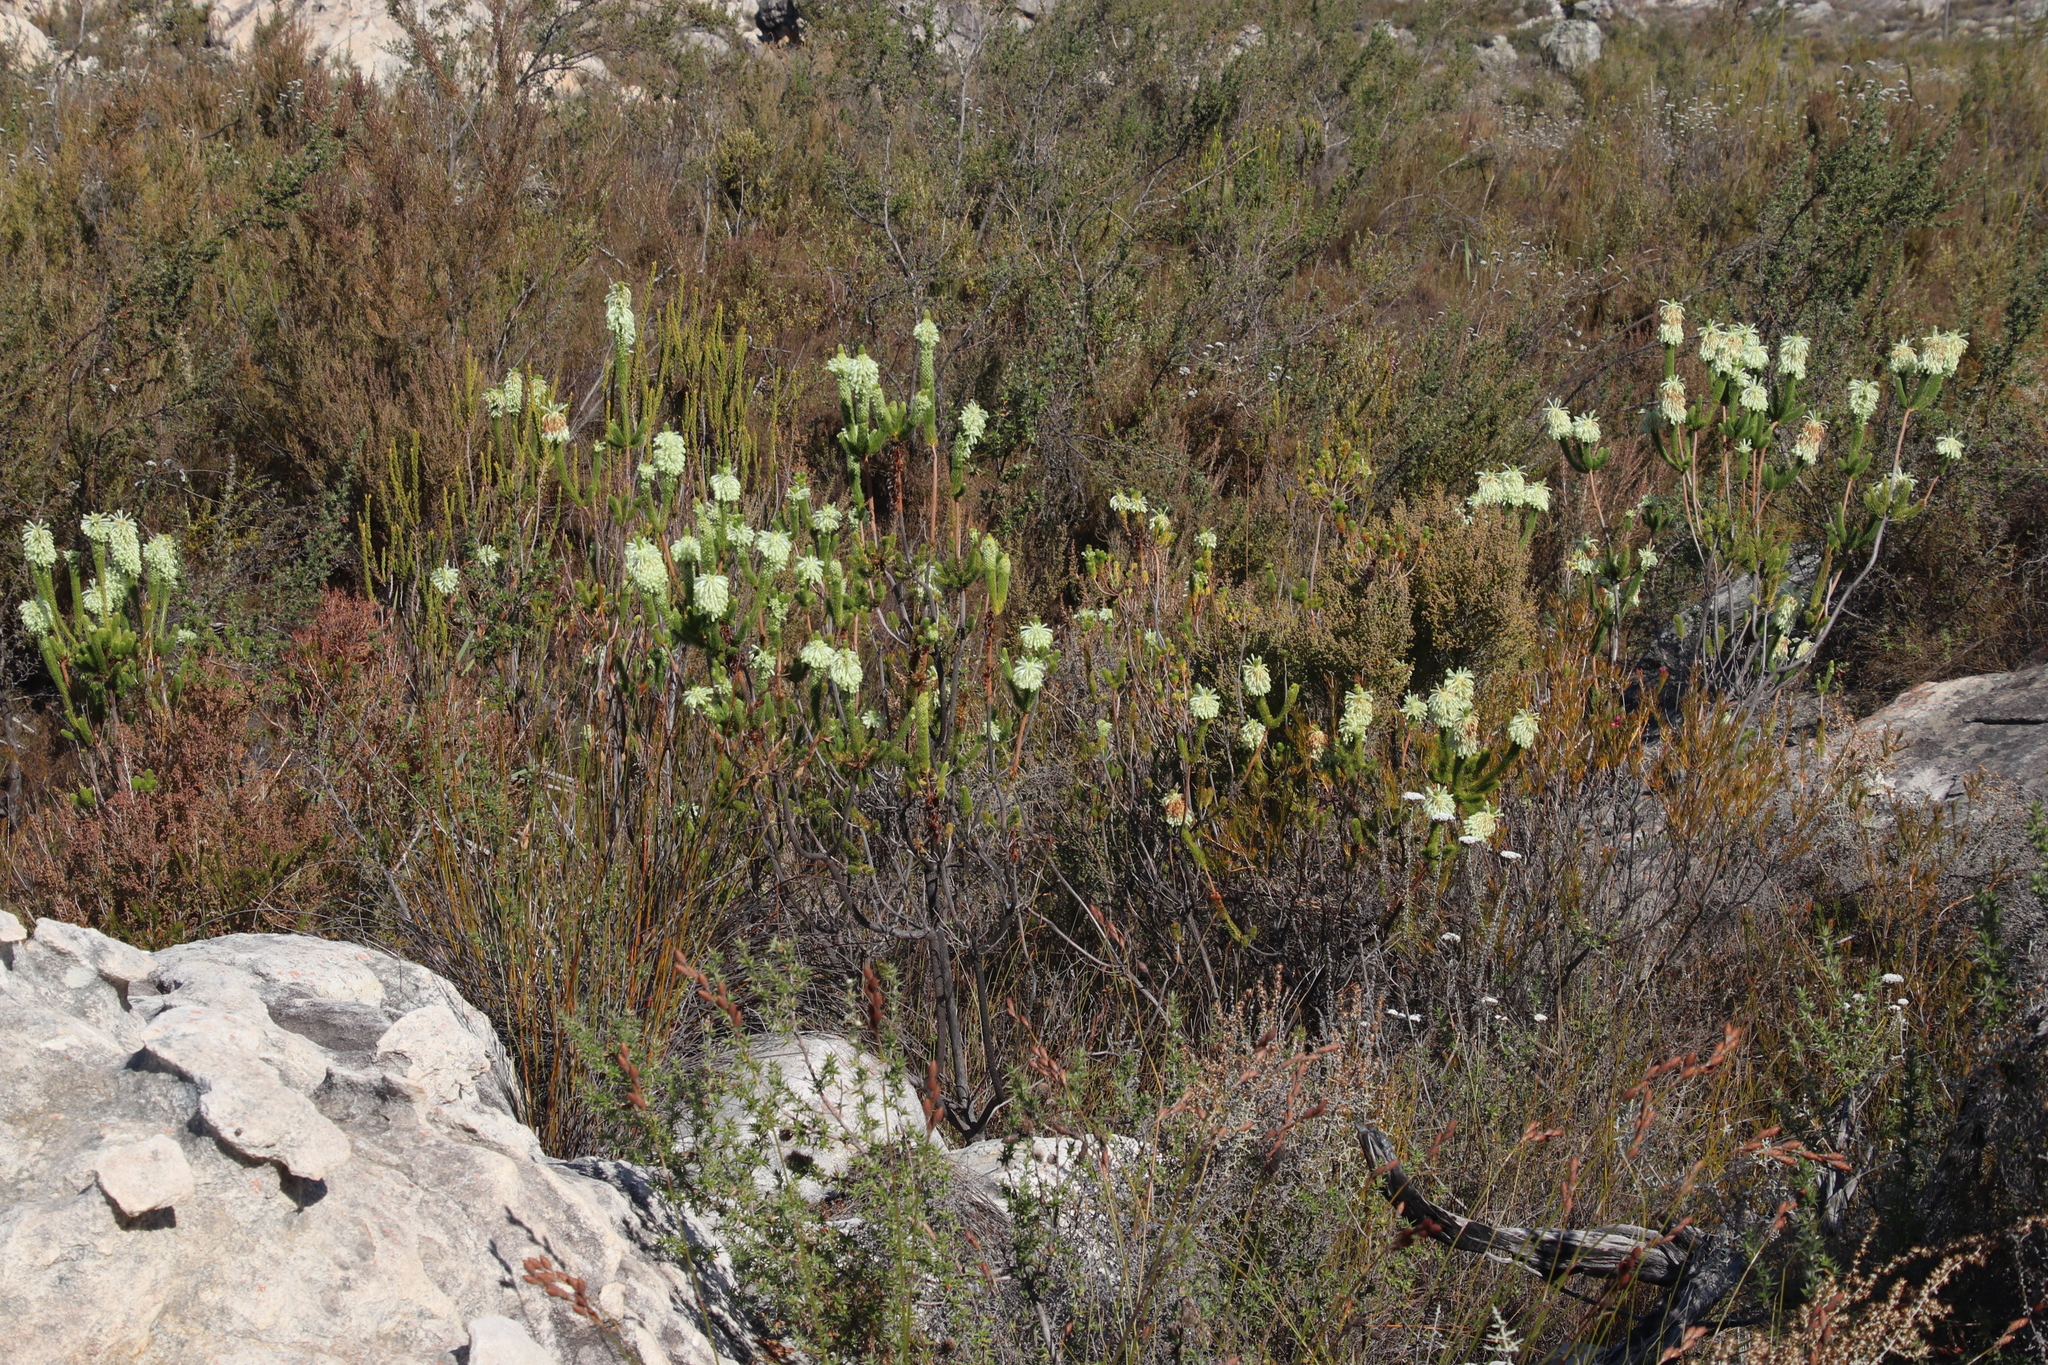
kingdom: Plantae
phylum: Tracheophyta
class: Magnoliopsida
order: Ericales
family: Ericaceae
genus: Erica
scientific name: Erica sessiliflora
